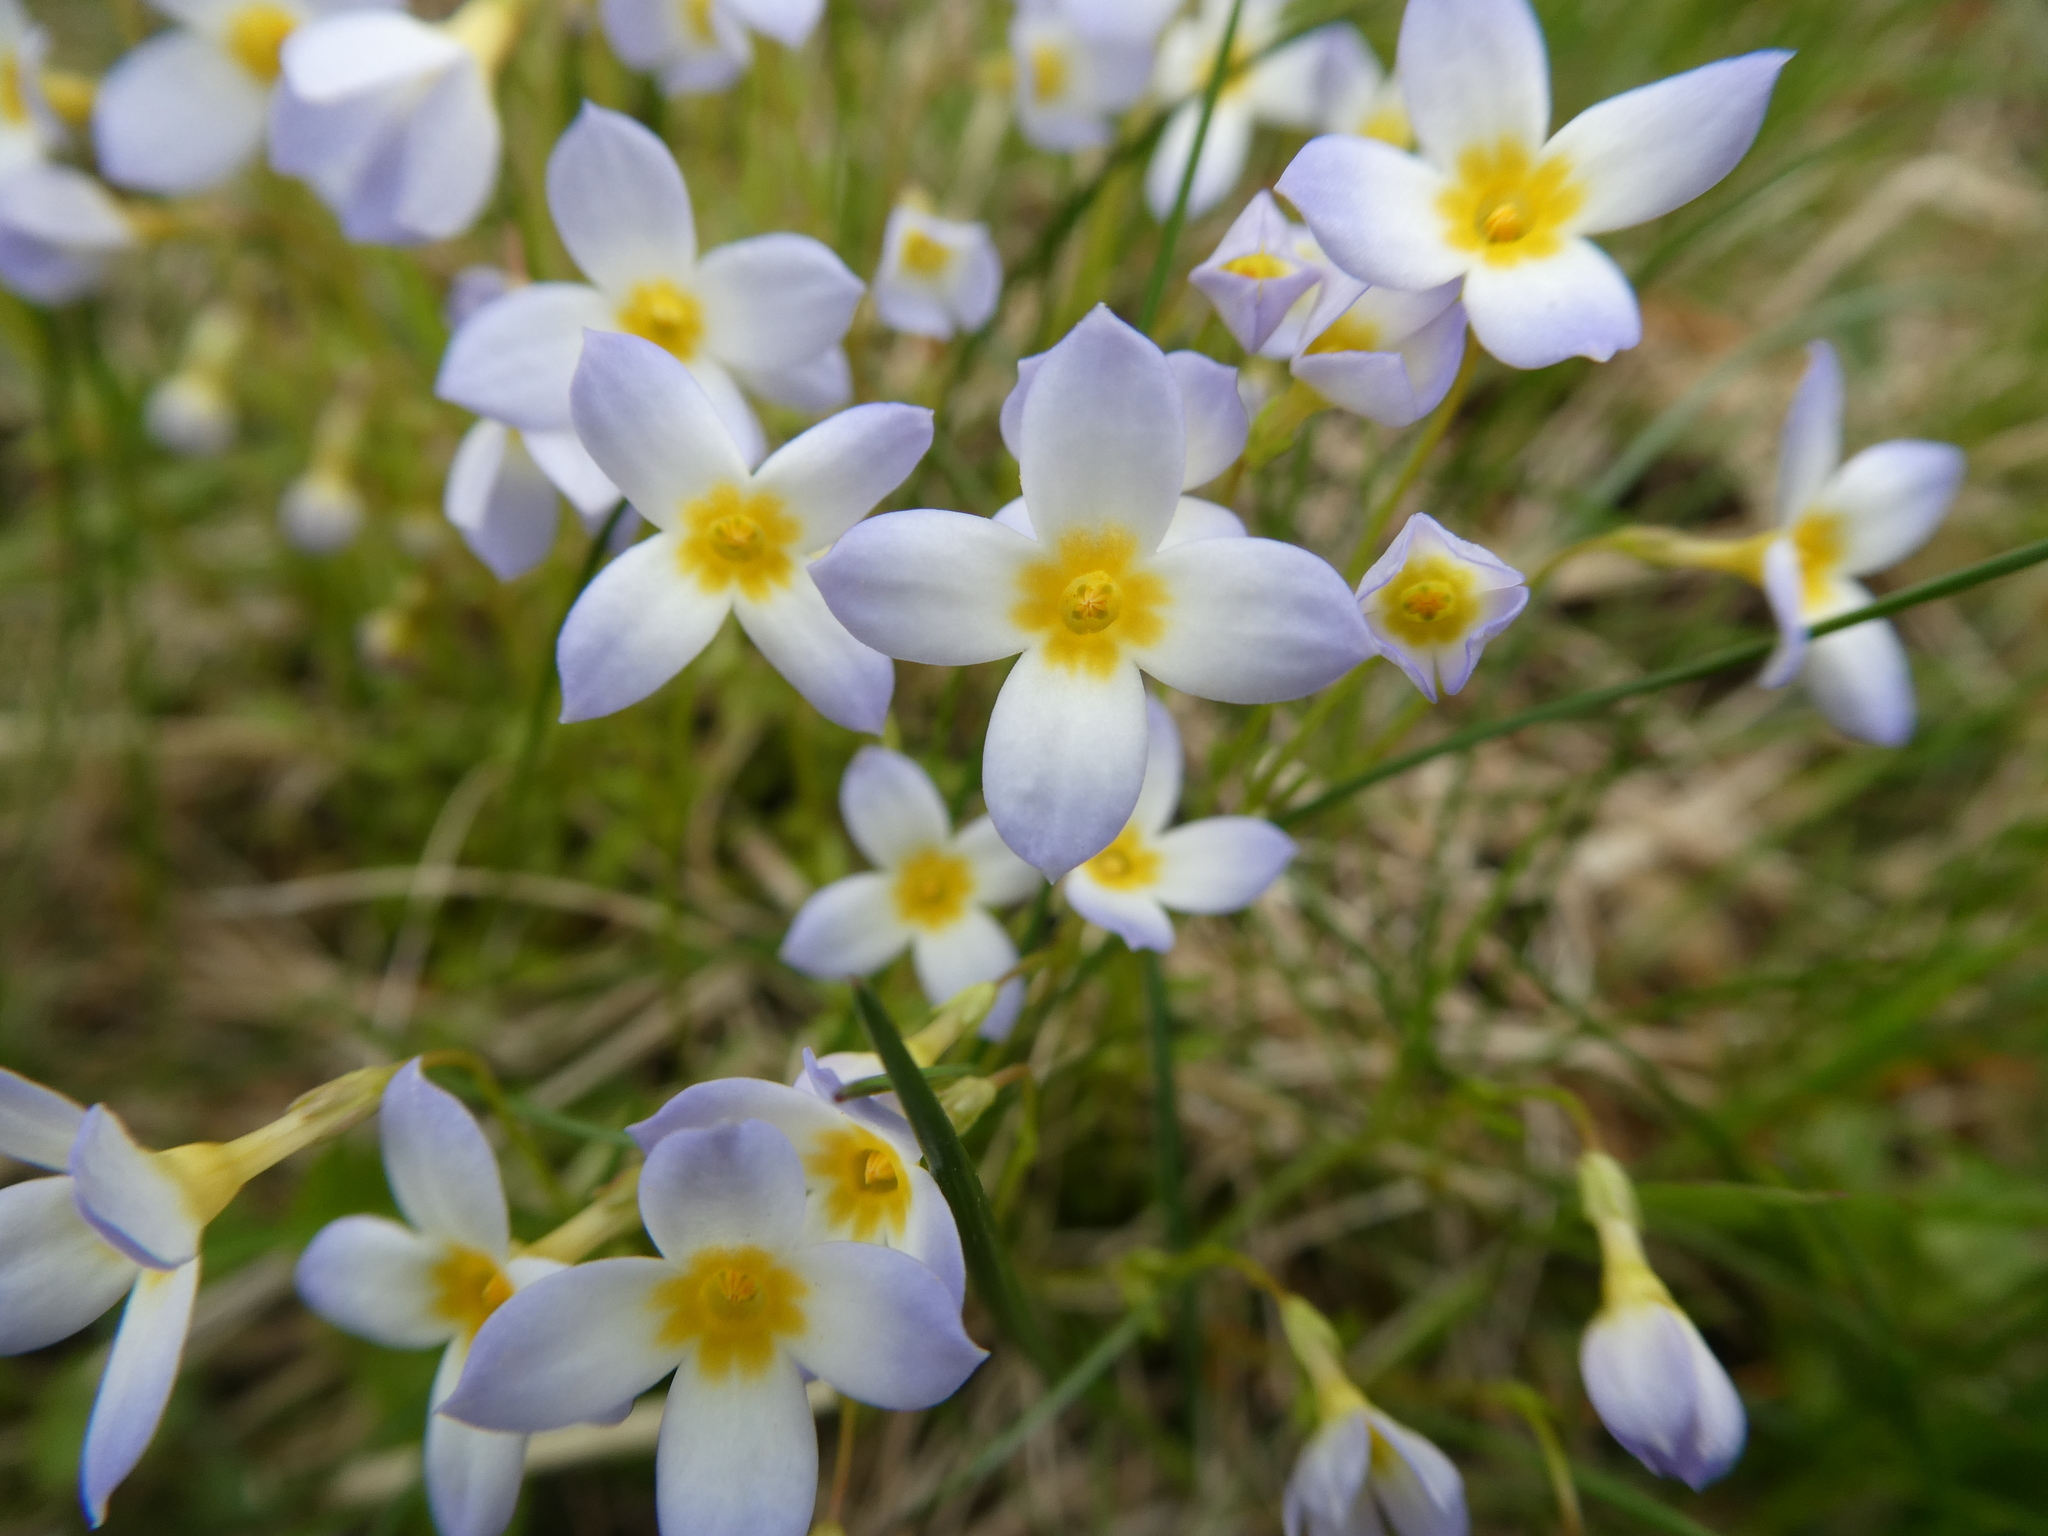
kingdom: Plantae
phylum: Tracheophyta
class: Magnoliopsida
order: Gentianales
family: Rubiaceae
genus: Houstonia
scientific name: Houstonia caerulea
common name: Bluets
